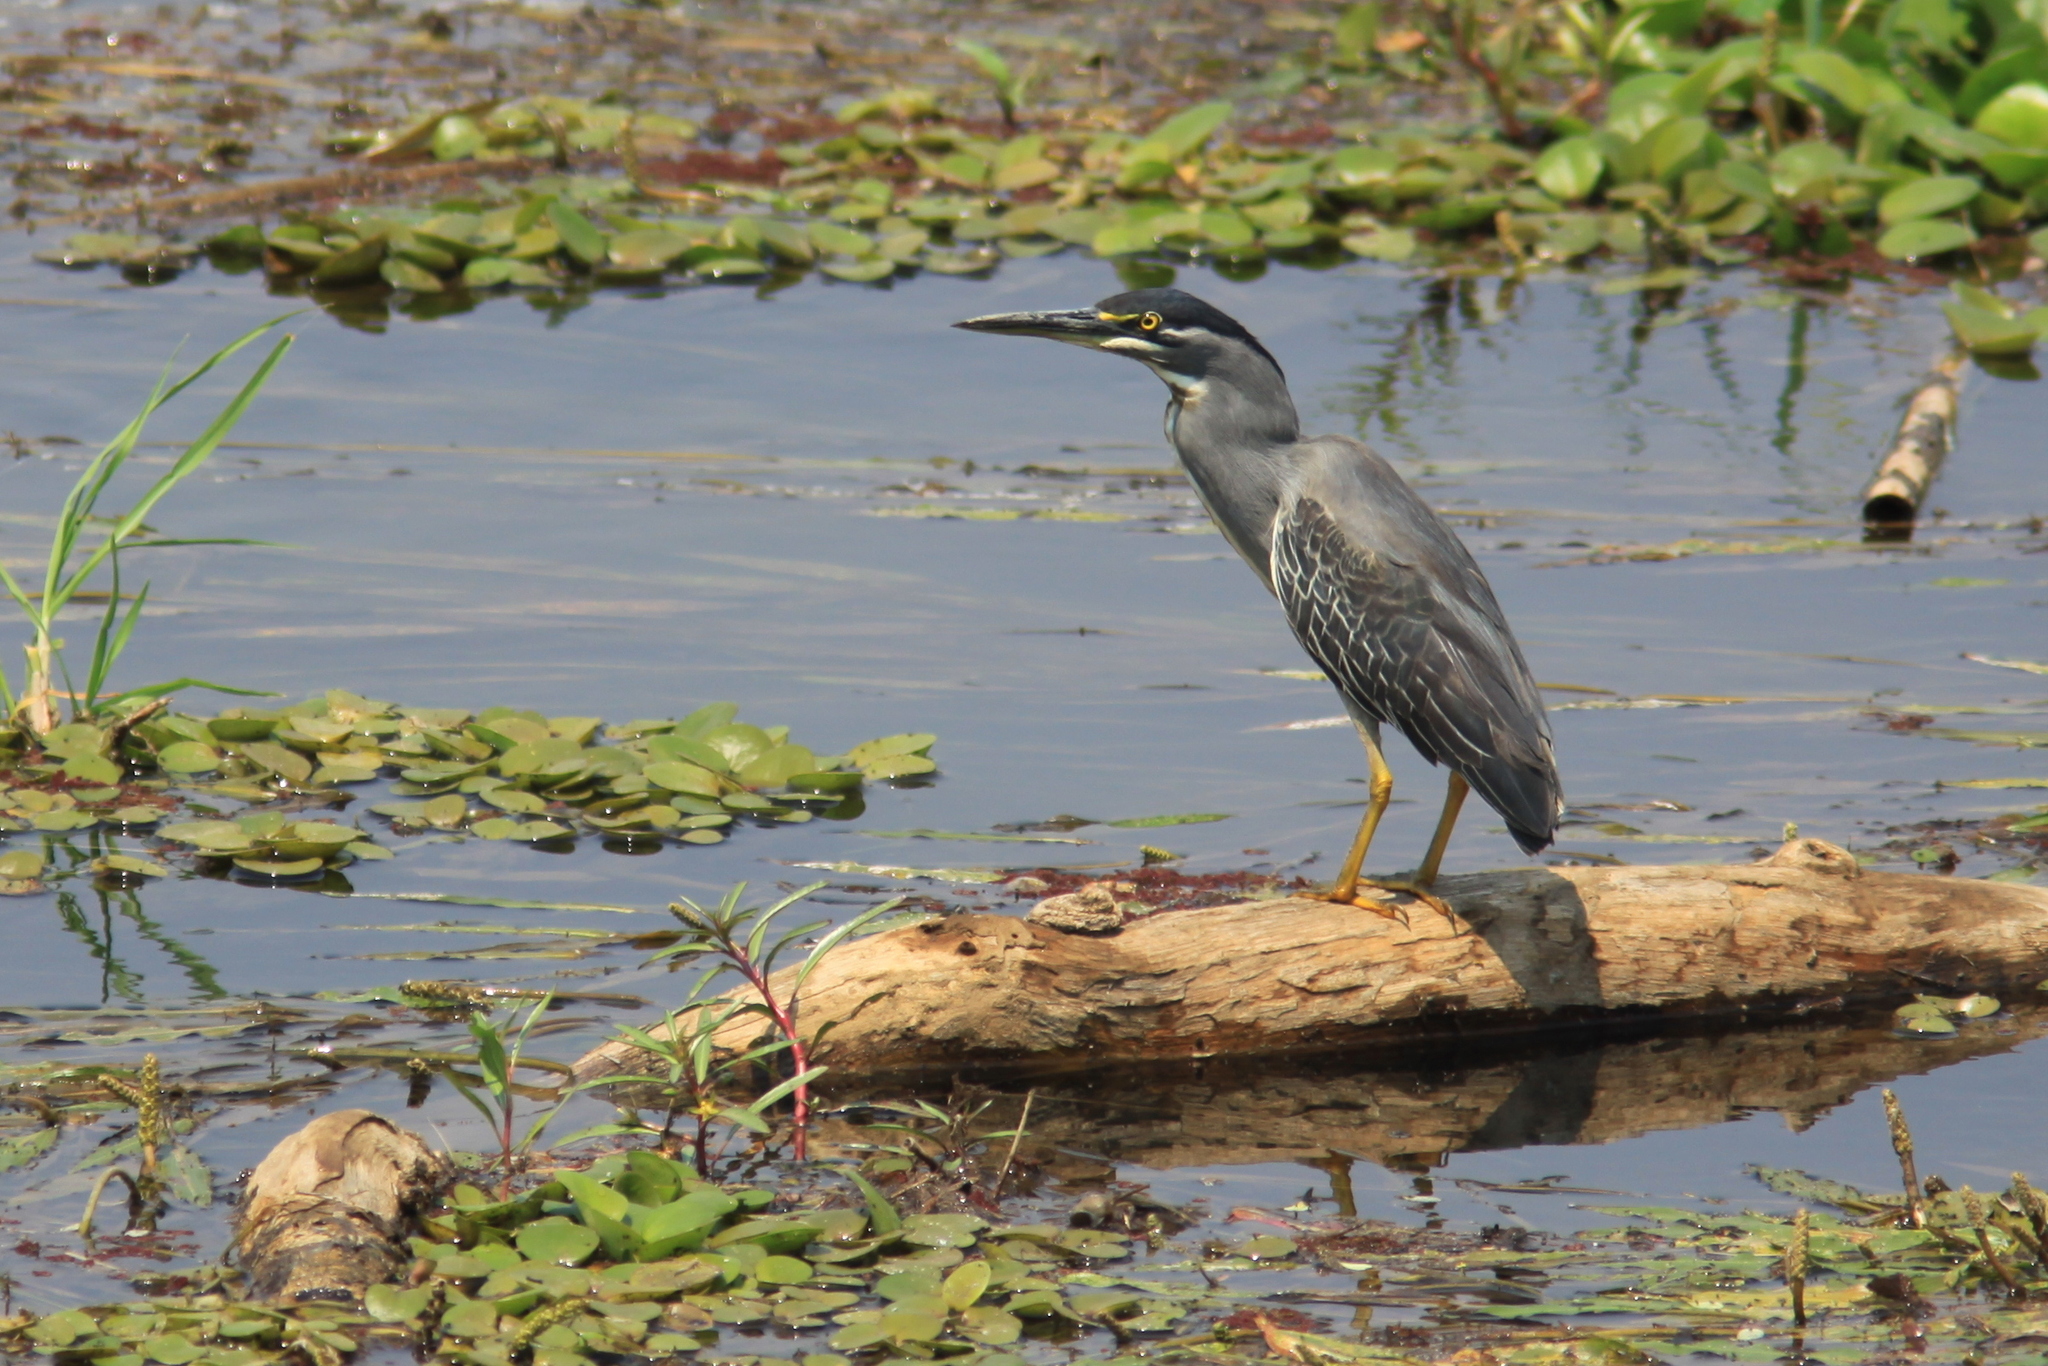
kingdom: Animalia
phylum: Chordata
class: Aves
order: Pelecaniformes
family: Ardeidae
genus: Butorides
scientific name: Butorides striata
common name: Striated heron
